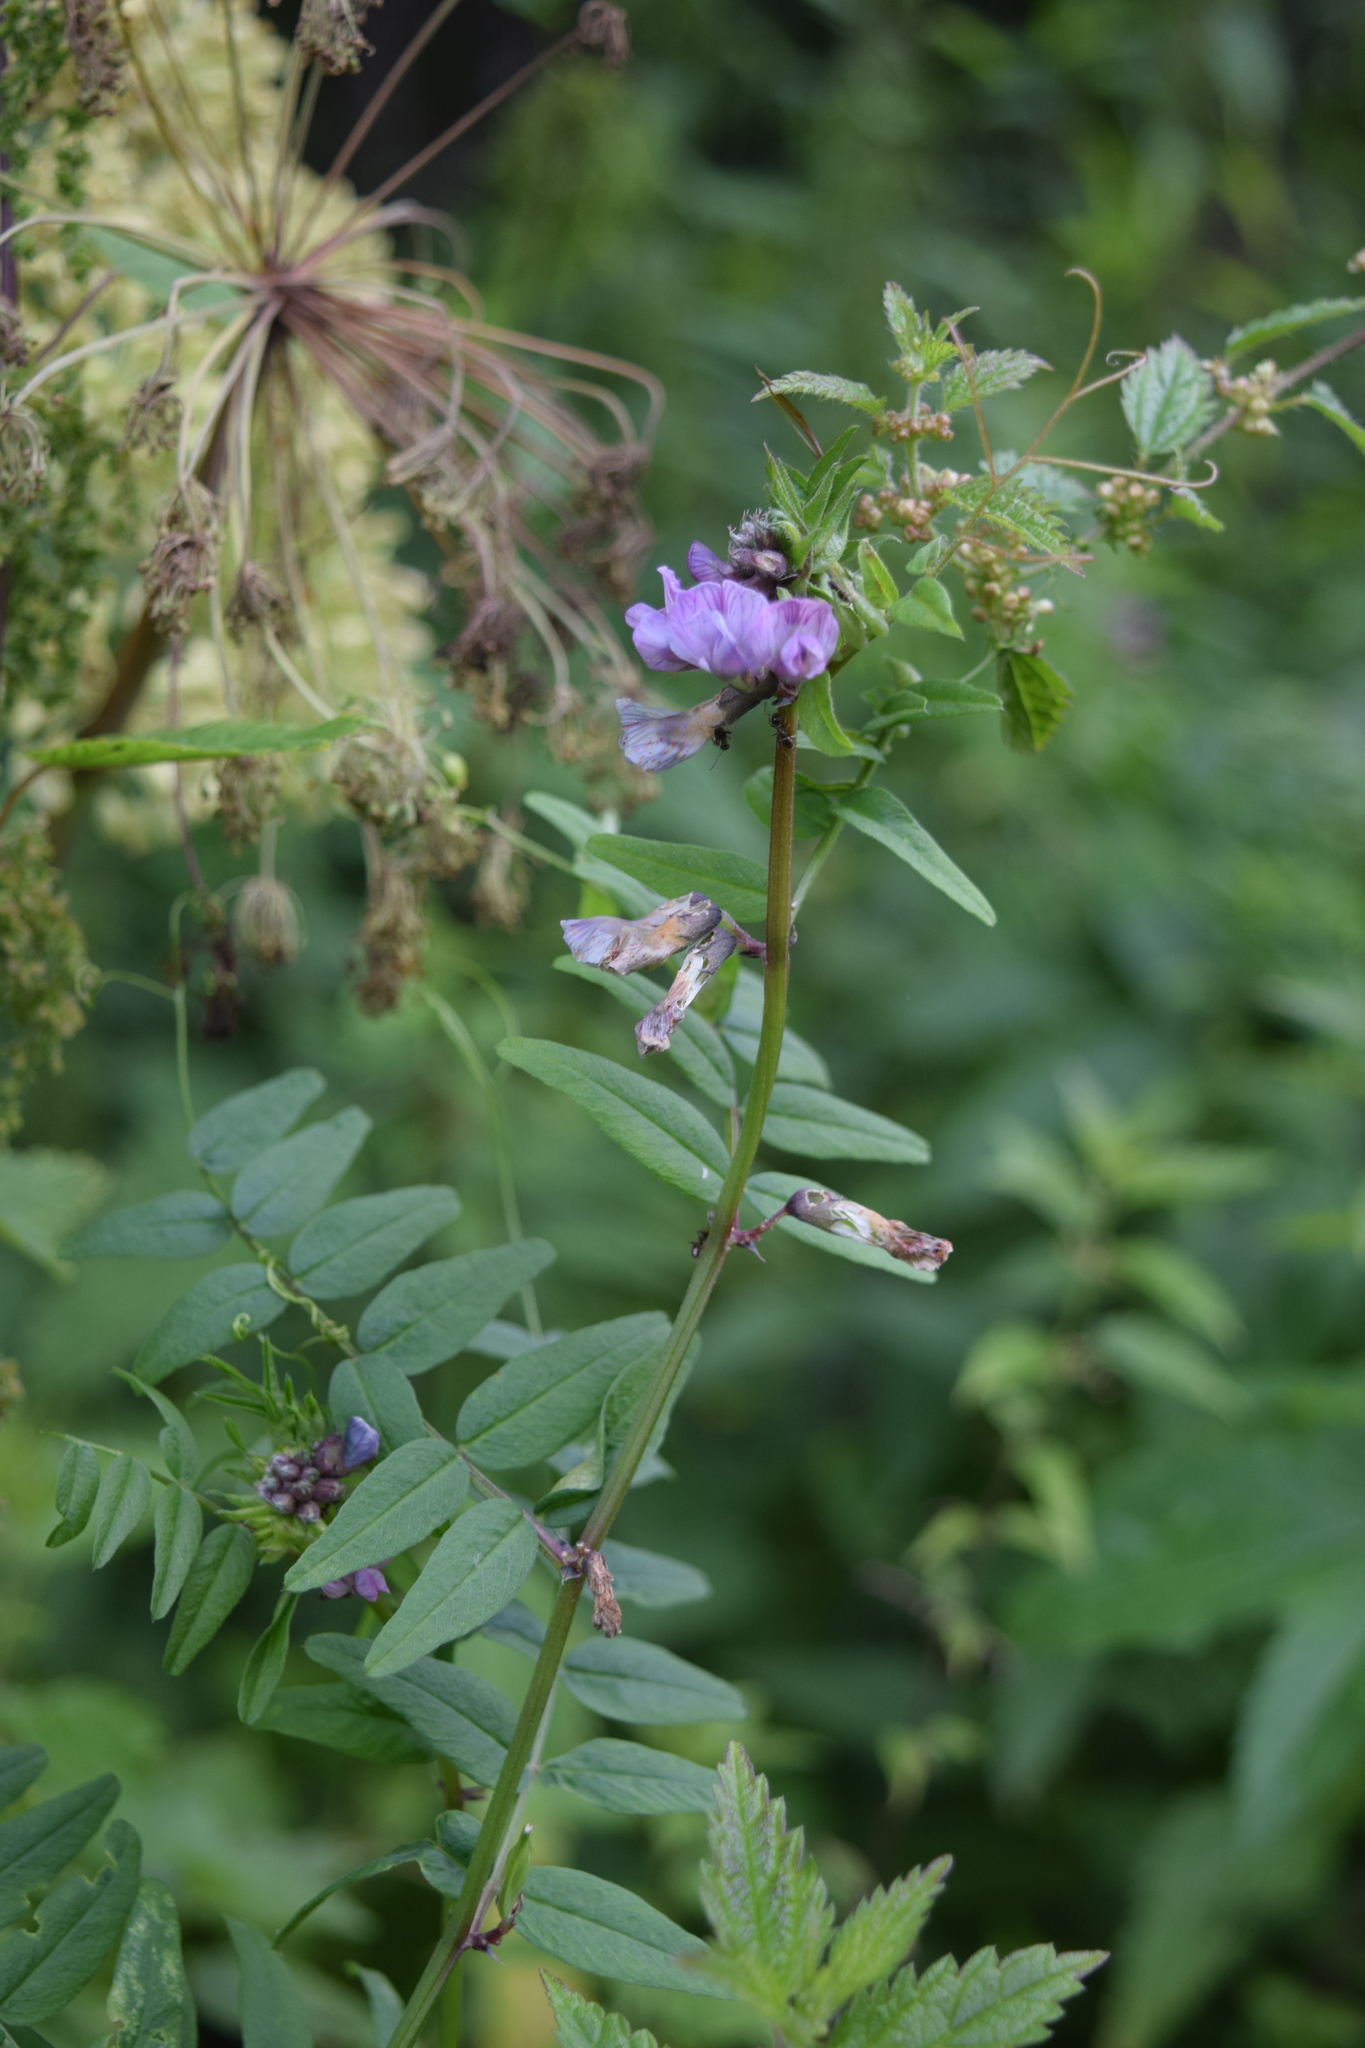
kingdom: Plantae
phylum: Tracheophyta
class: Magnoliopsida
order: Fabales
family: Fabaceae
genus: Vicia
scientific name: Vicia sepium
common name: Bush vetch
